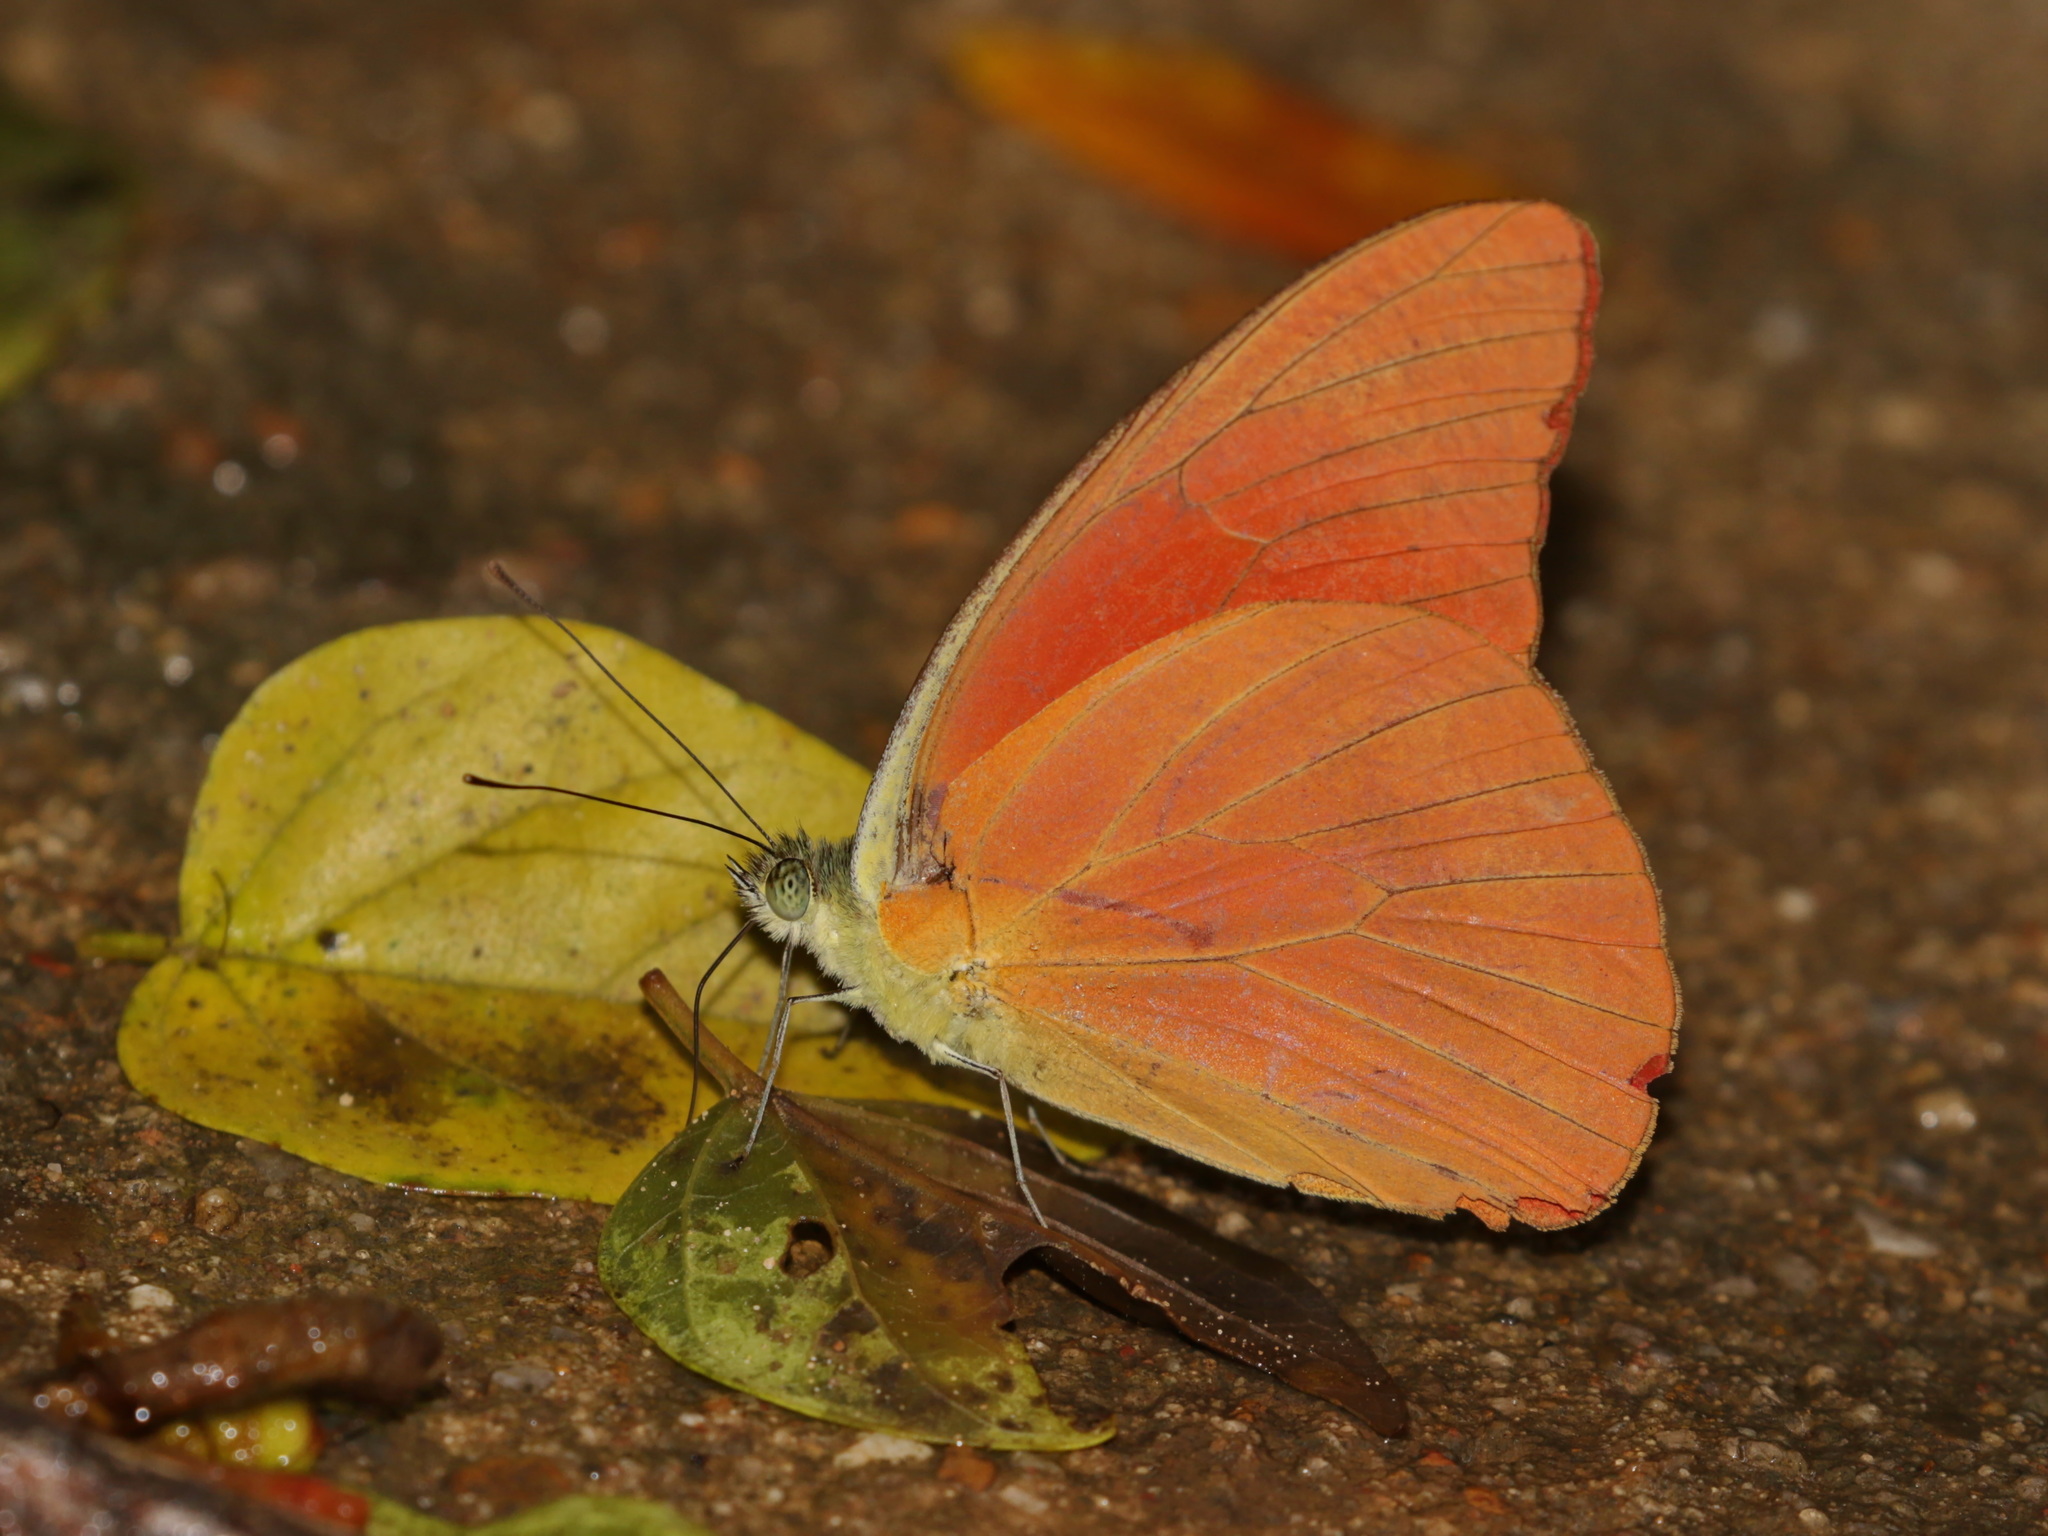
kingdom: Animalia
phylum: Arthropoda
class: Insecta
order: Lepidoptera
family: Pieridae
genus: Appias
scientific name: Appias nero
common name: Orange albatross
